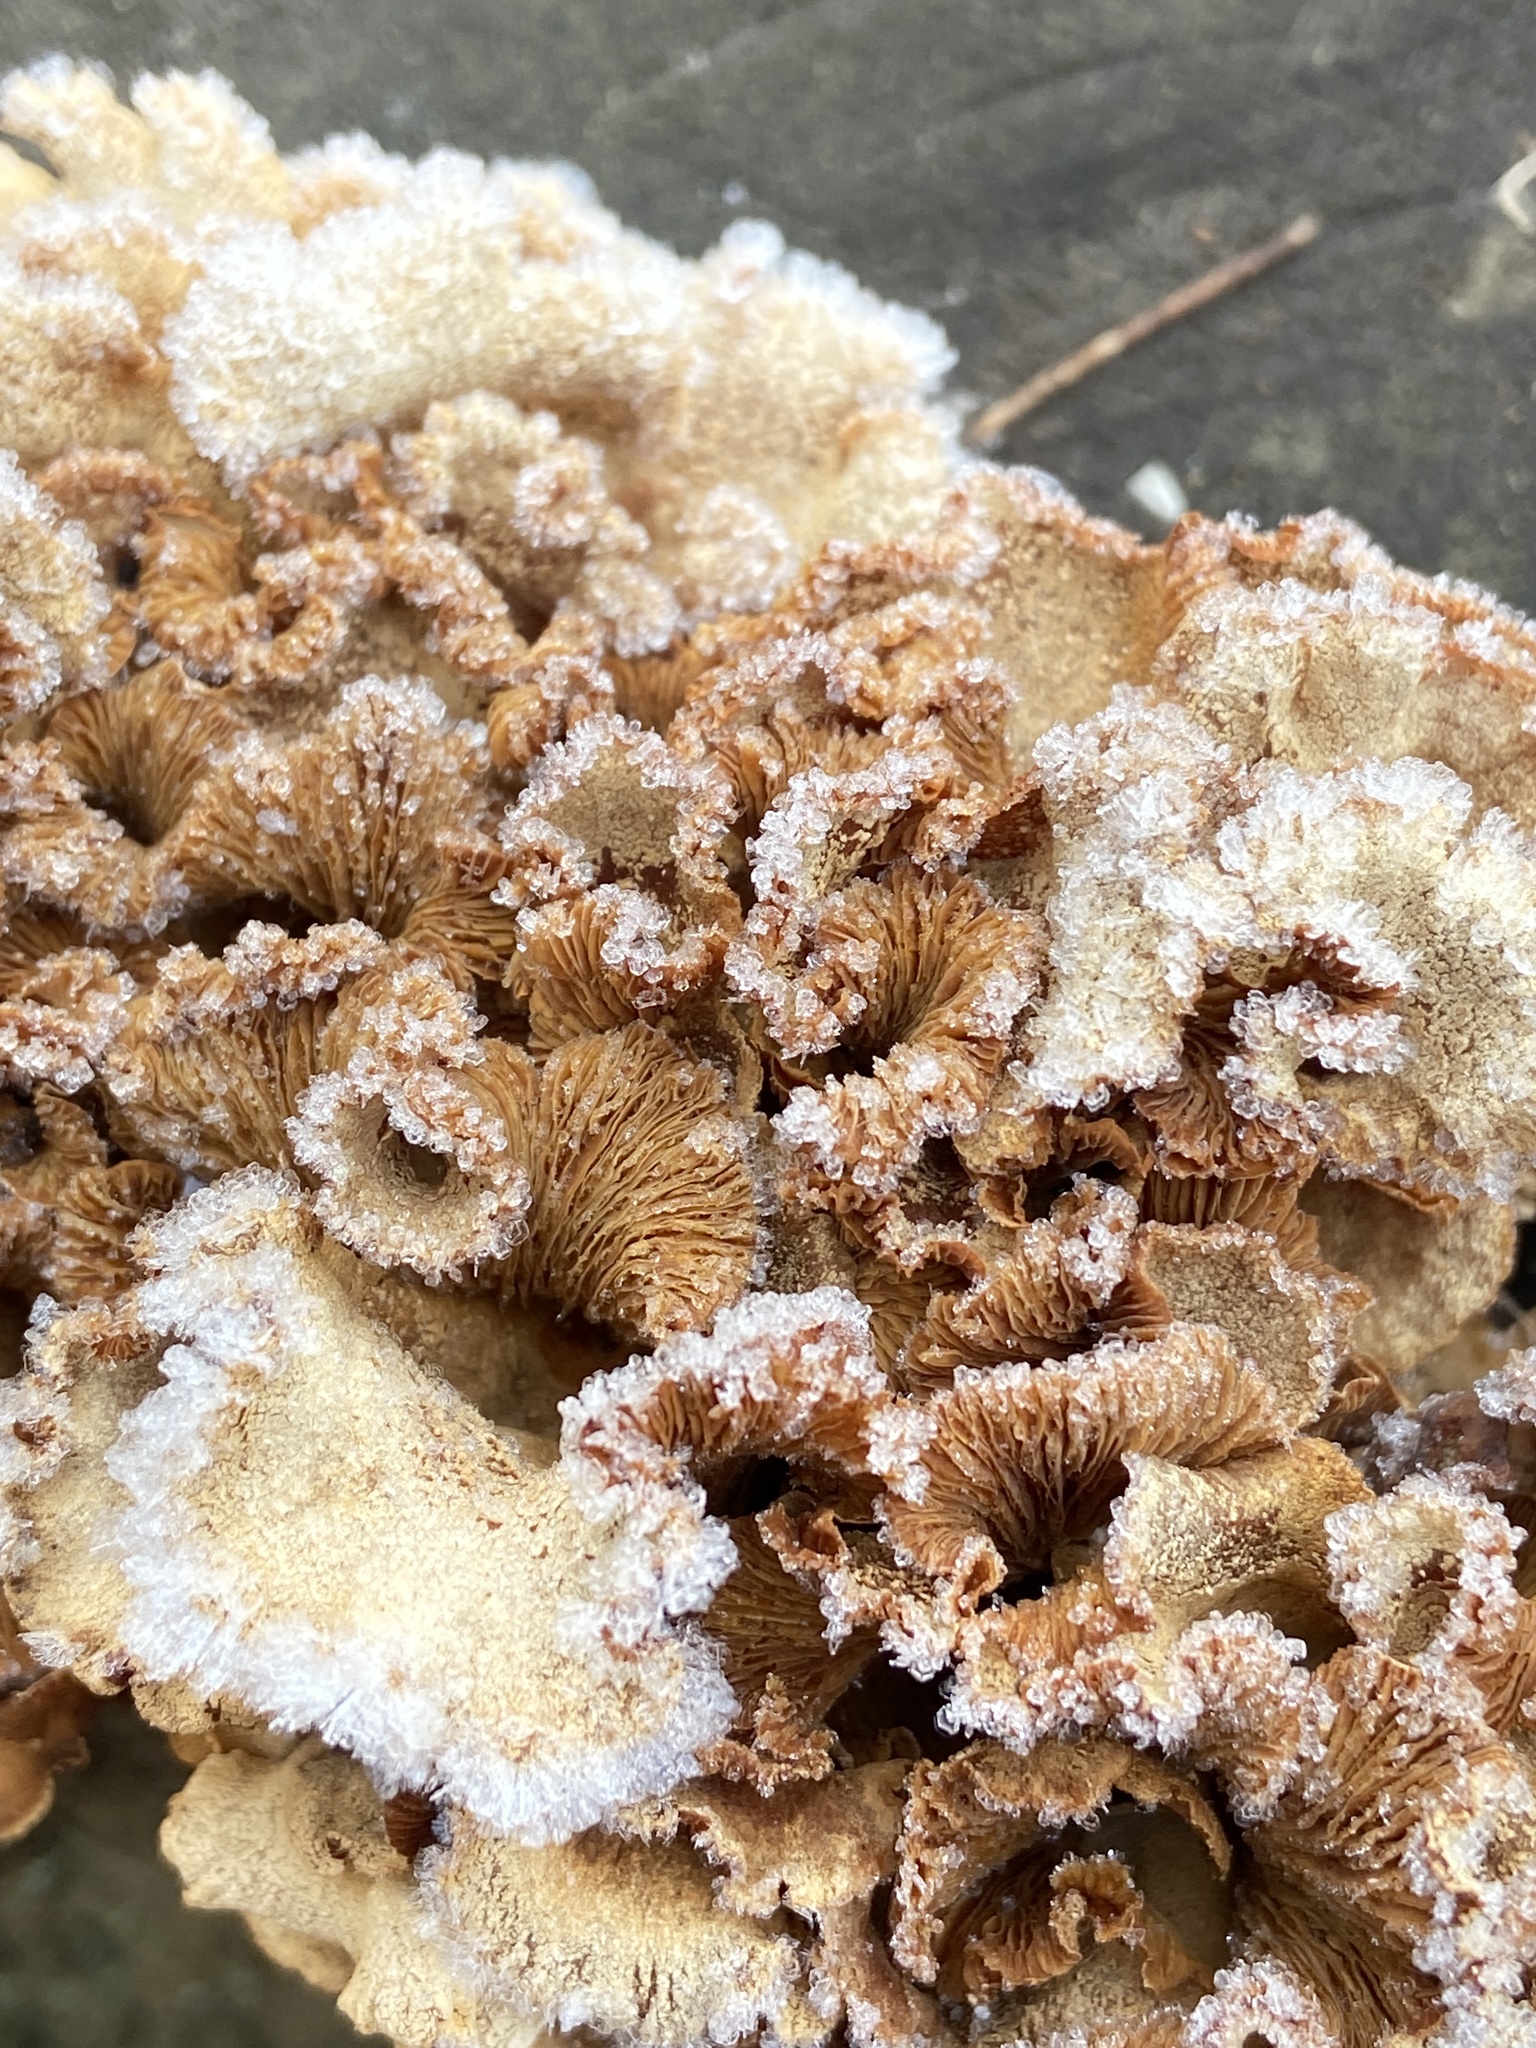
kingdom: Fungi
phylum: Basidiomycota
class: Agaricomycetes
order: Agaricales
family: Mycenaceae
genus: Panellus
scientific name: Panellus stipticus
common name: Bitter oysterling
